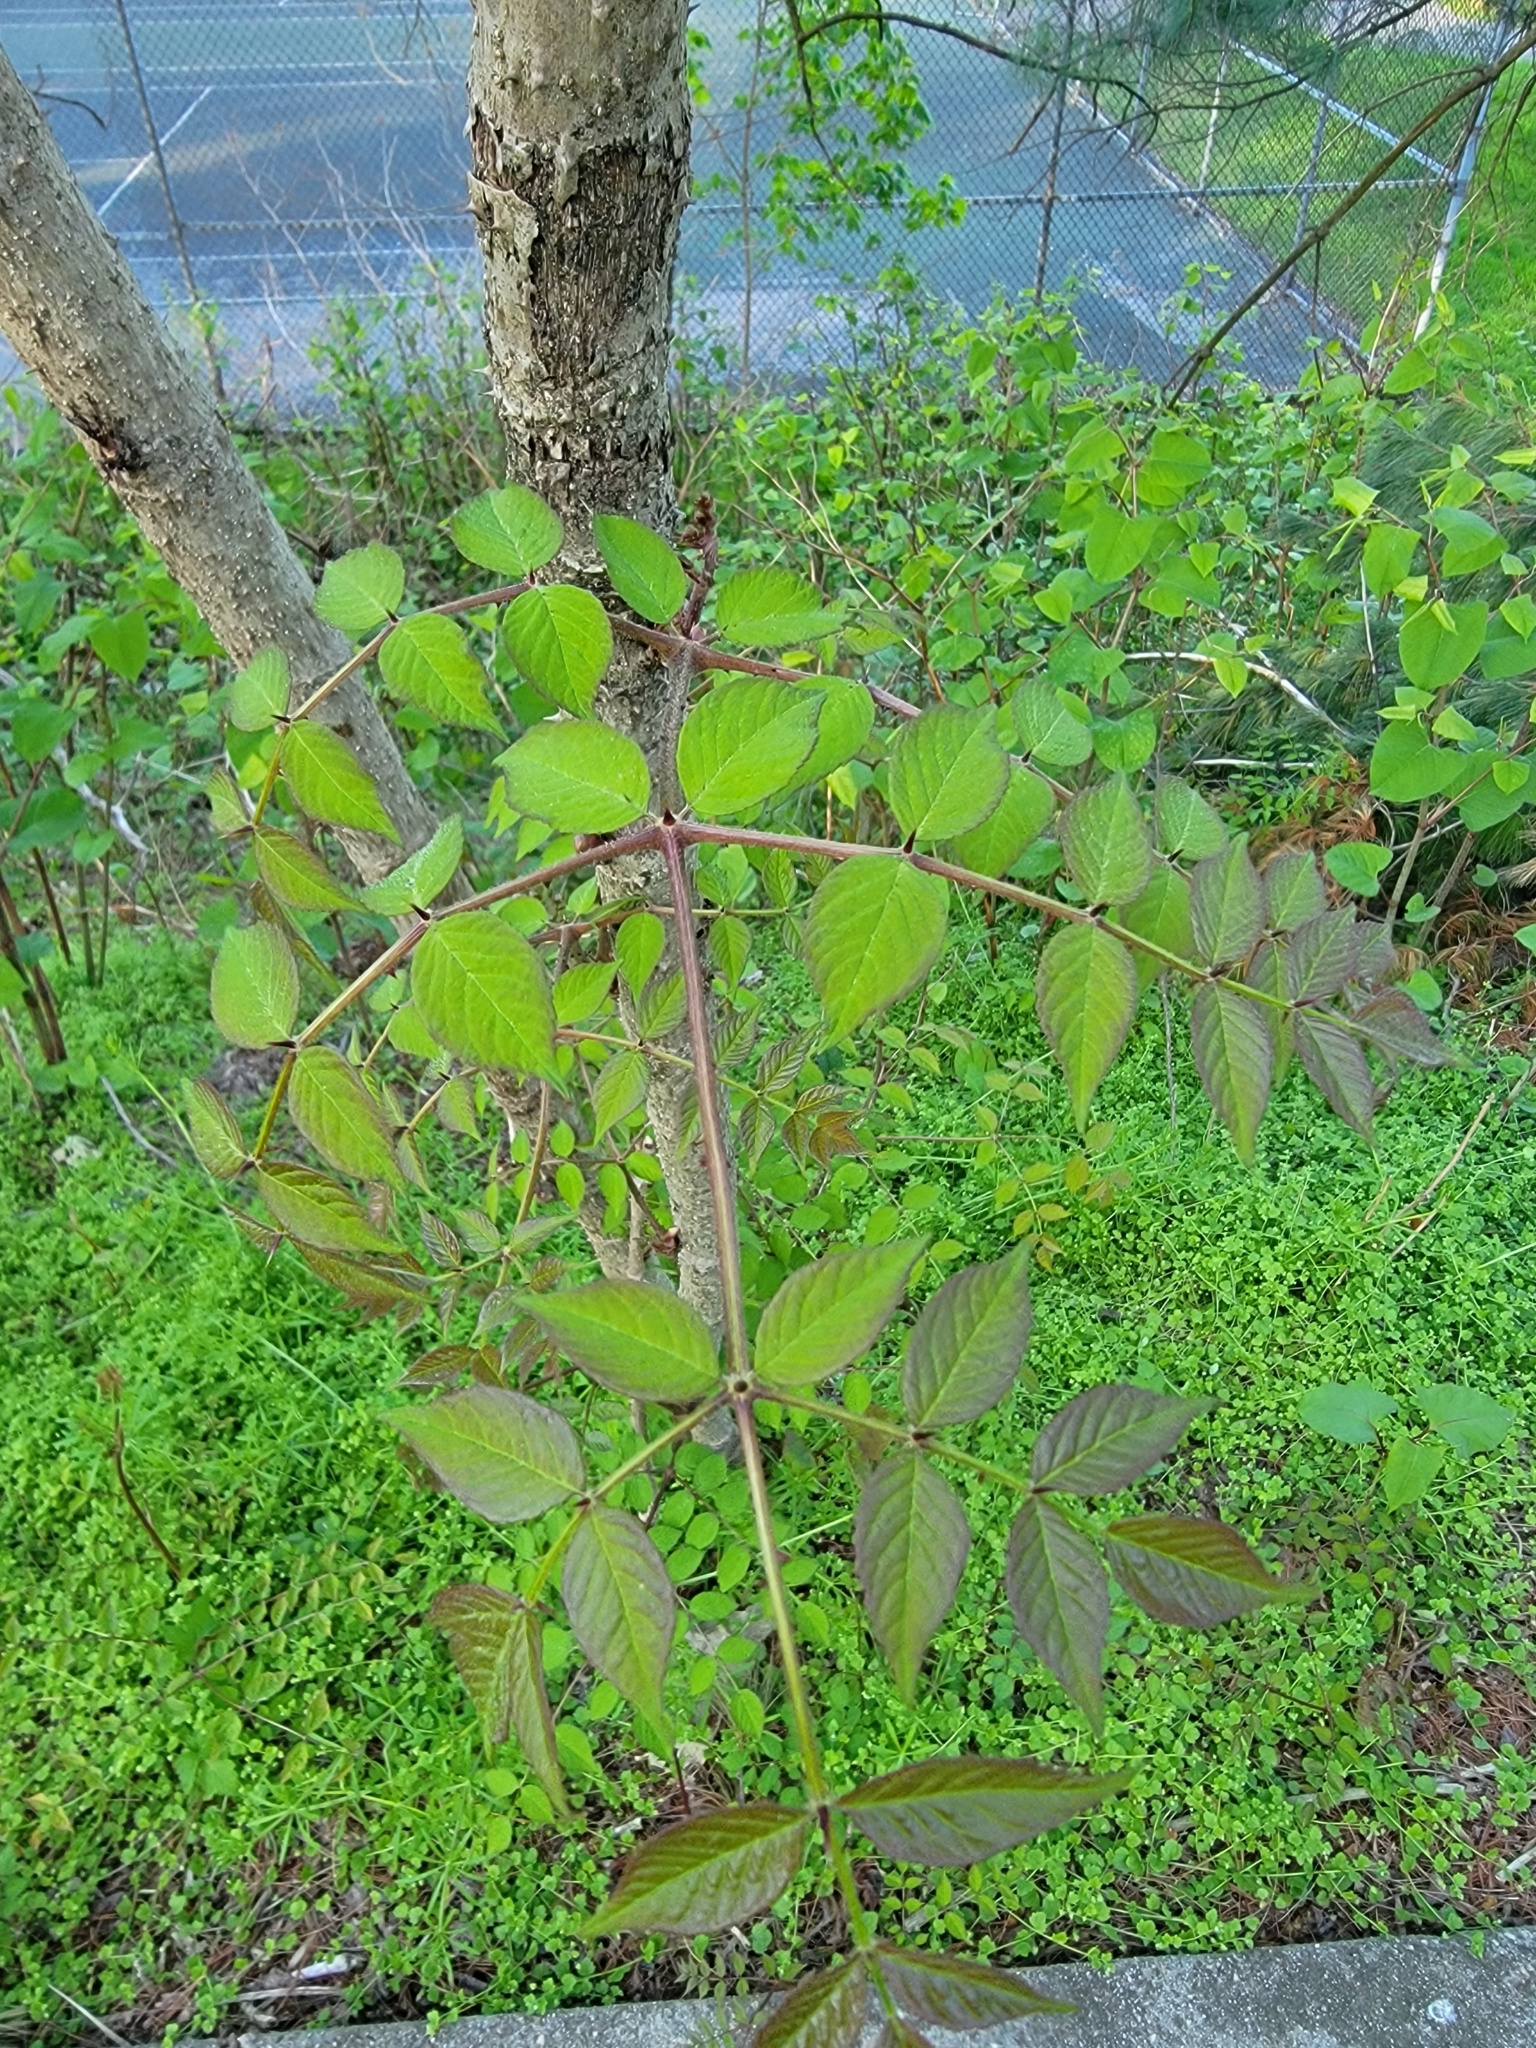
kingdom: Plantae
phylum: Tracheophyta
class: Magnoliopsida
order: Apiales
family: Araliaceae
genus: Aralia
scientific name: Aralia elata
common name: Japanese angelica-tree
